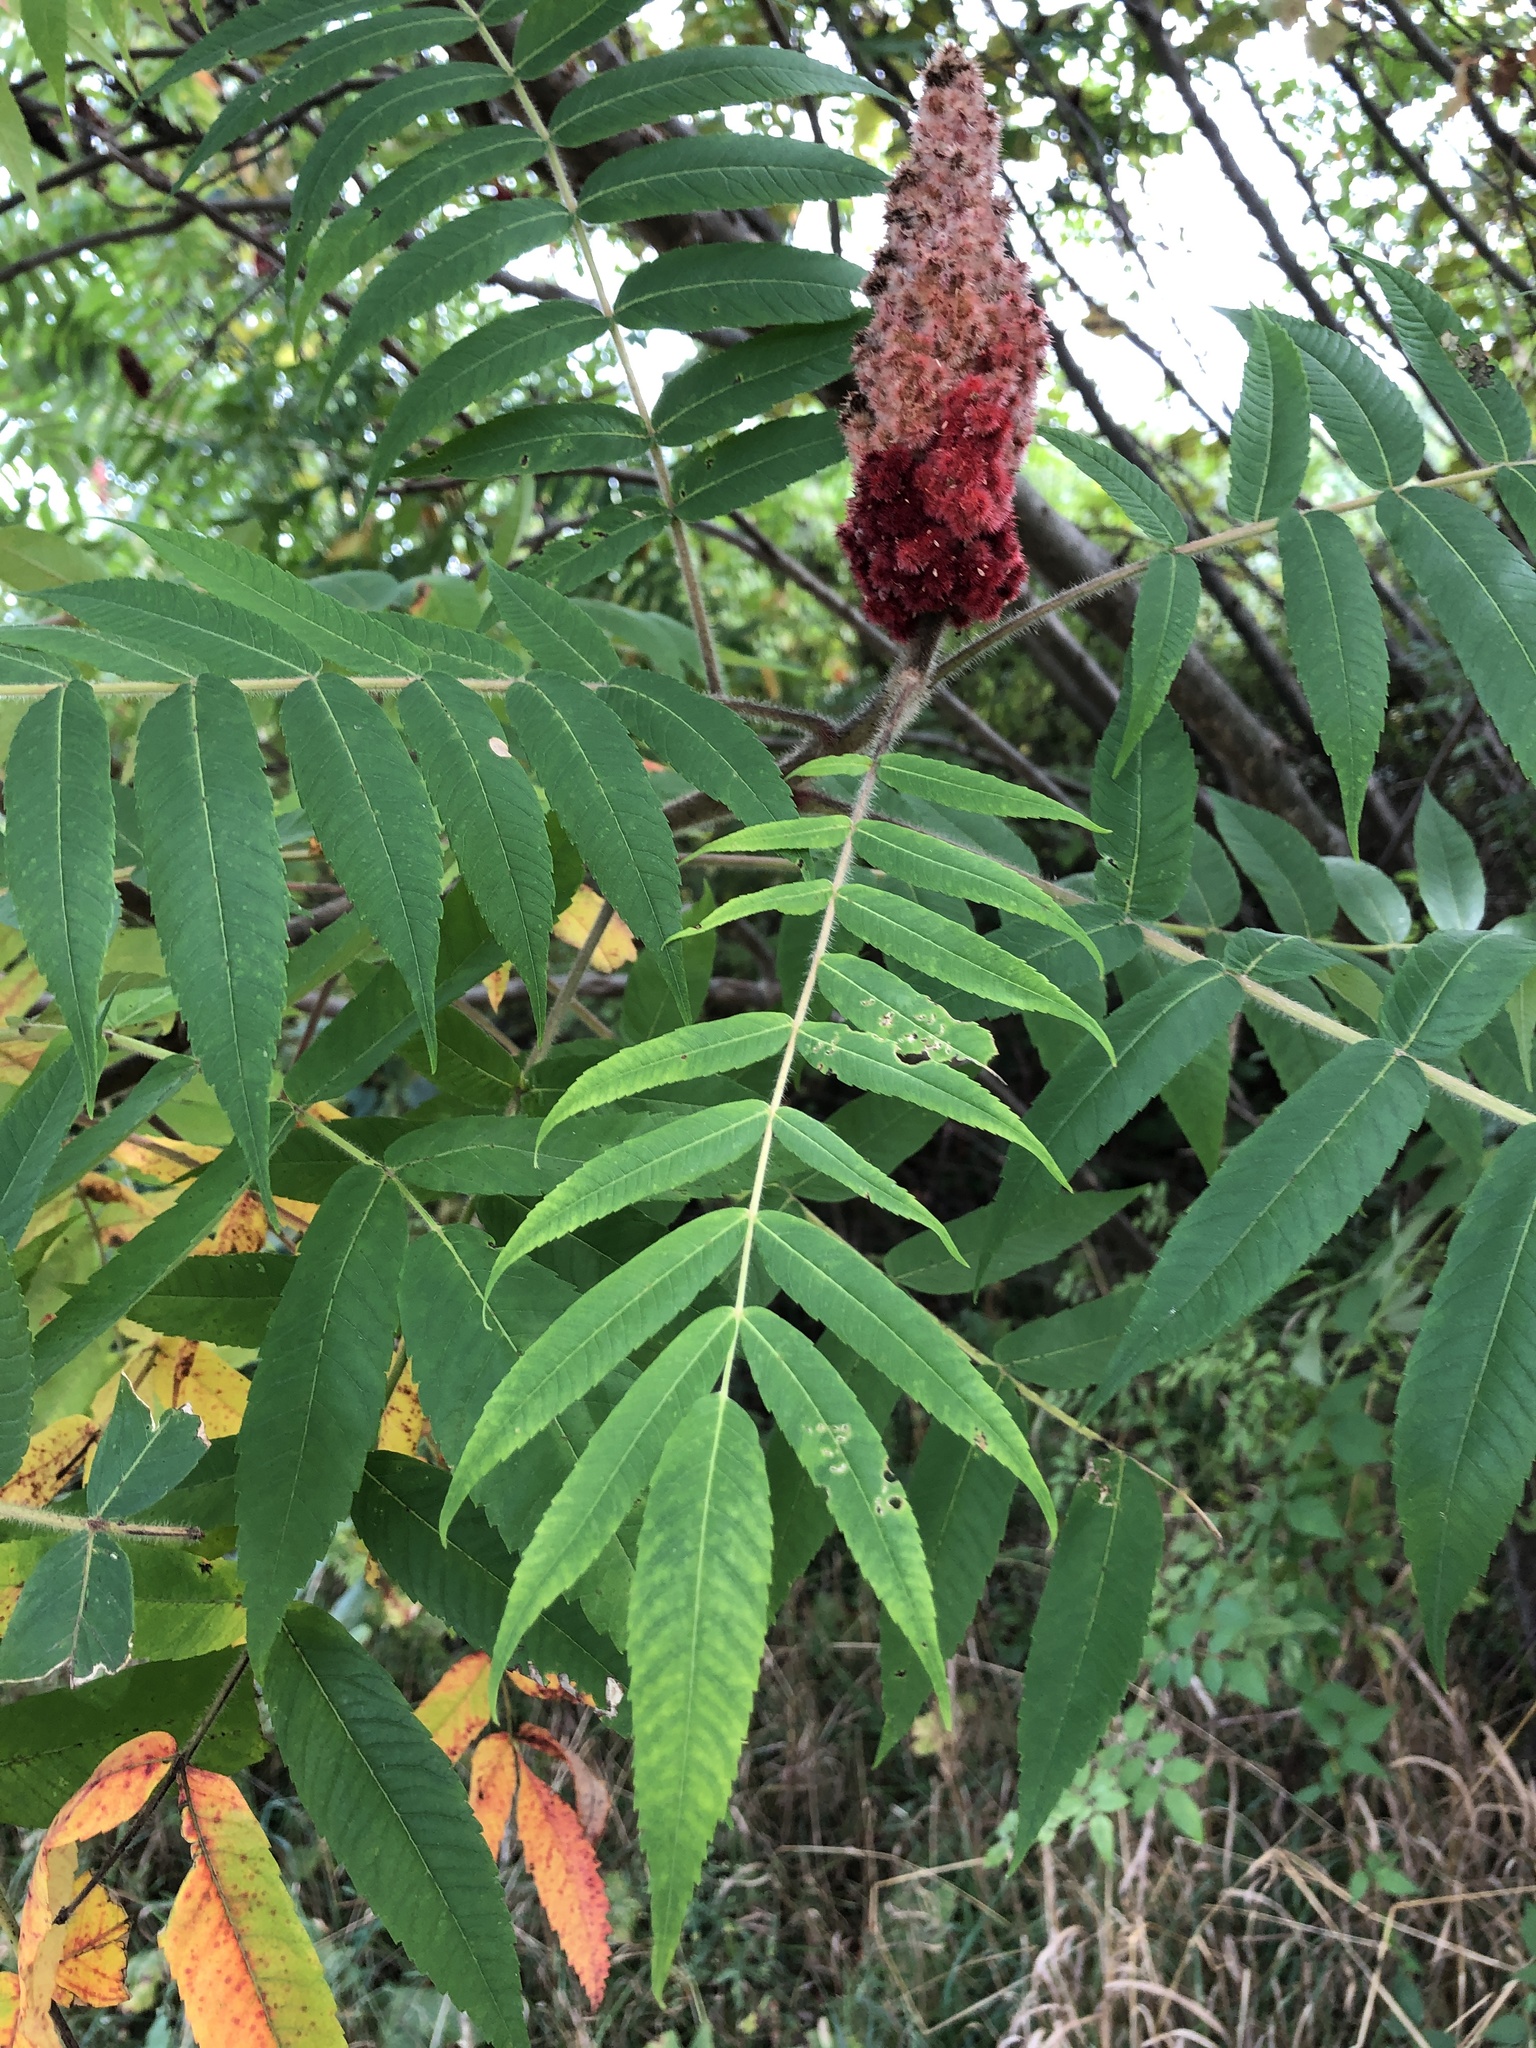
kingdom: Plantae
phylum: Tracheophyta
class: Magnoliopsida
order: Sapindales
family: Anacardiaceae
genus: Rhus
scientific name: Rhus typhina
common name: Staghorn sumac
